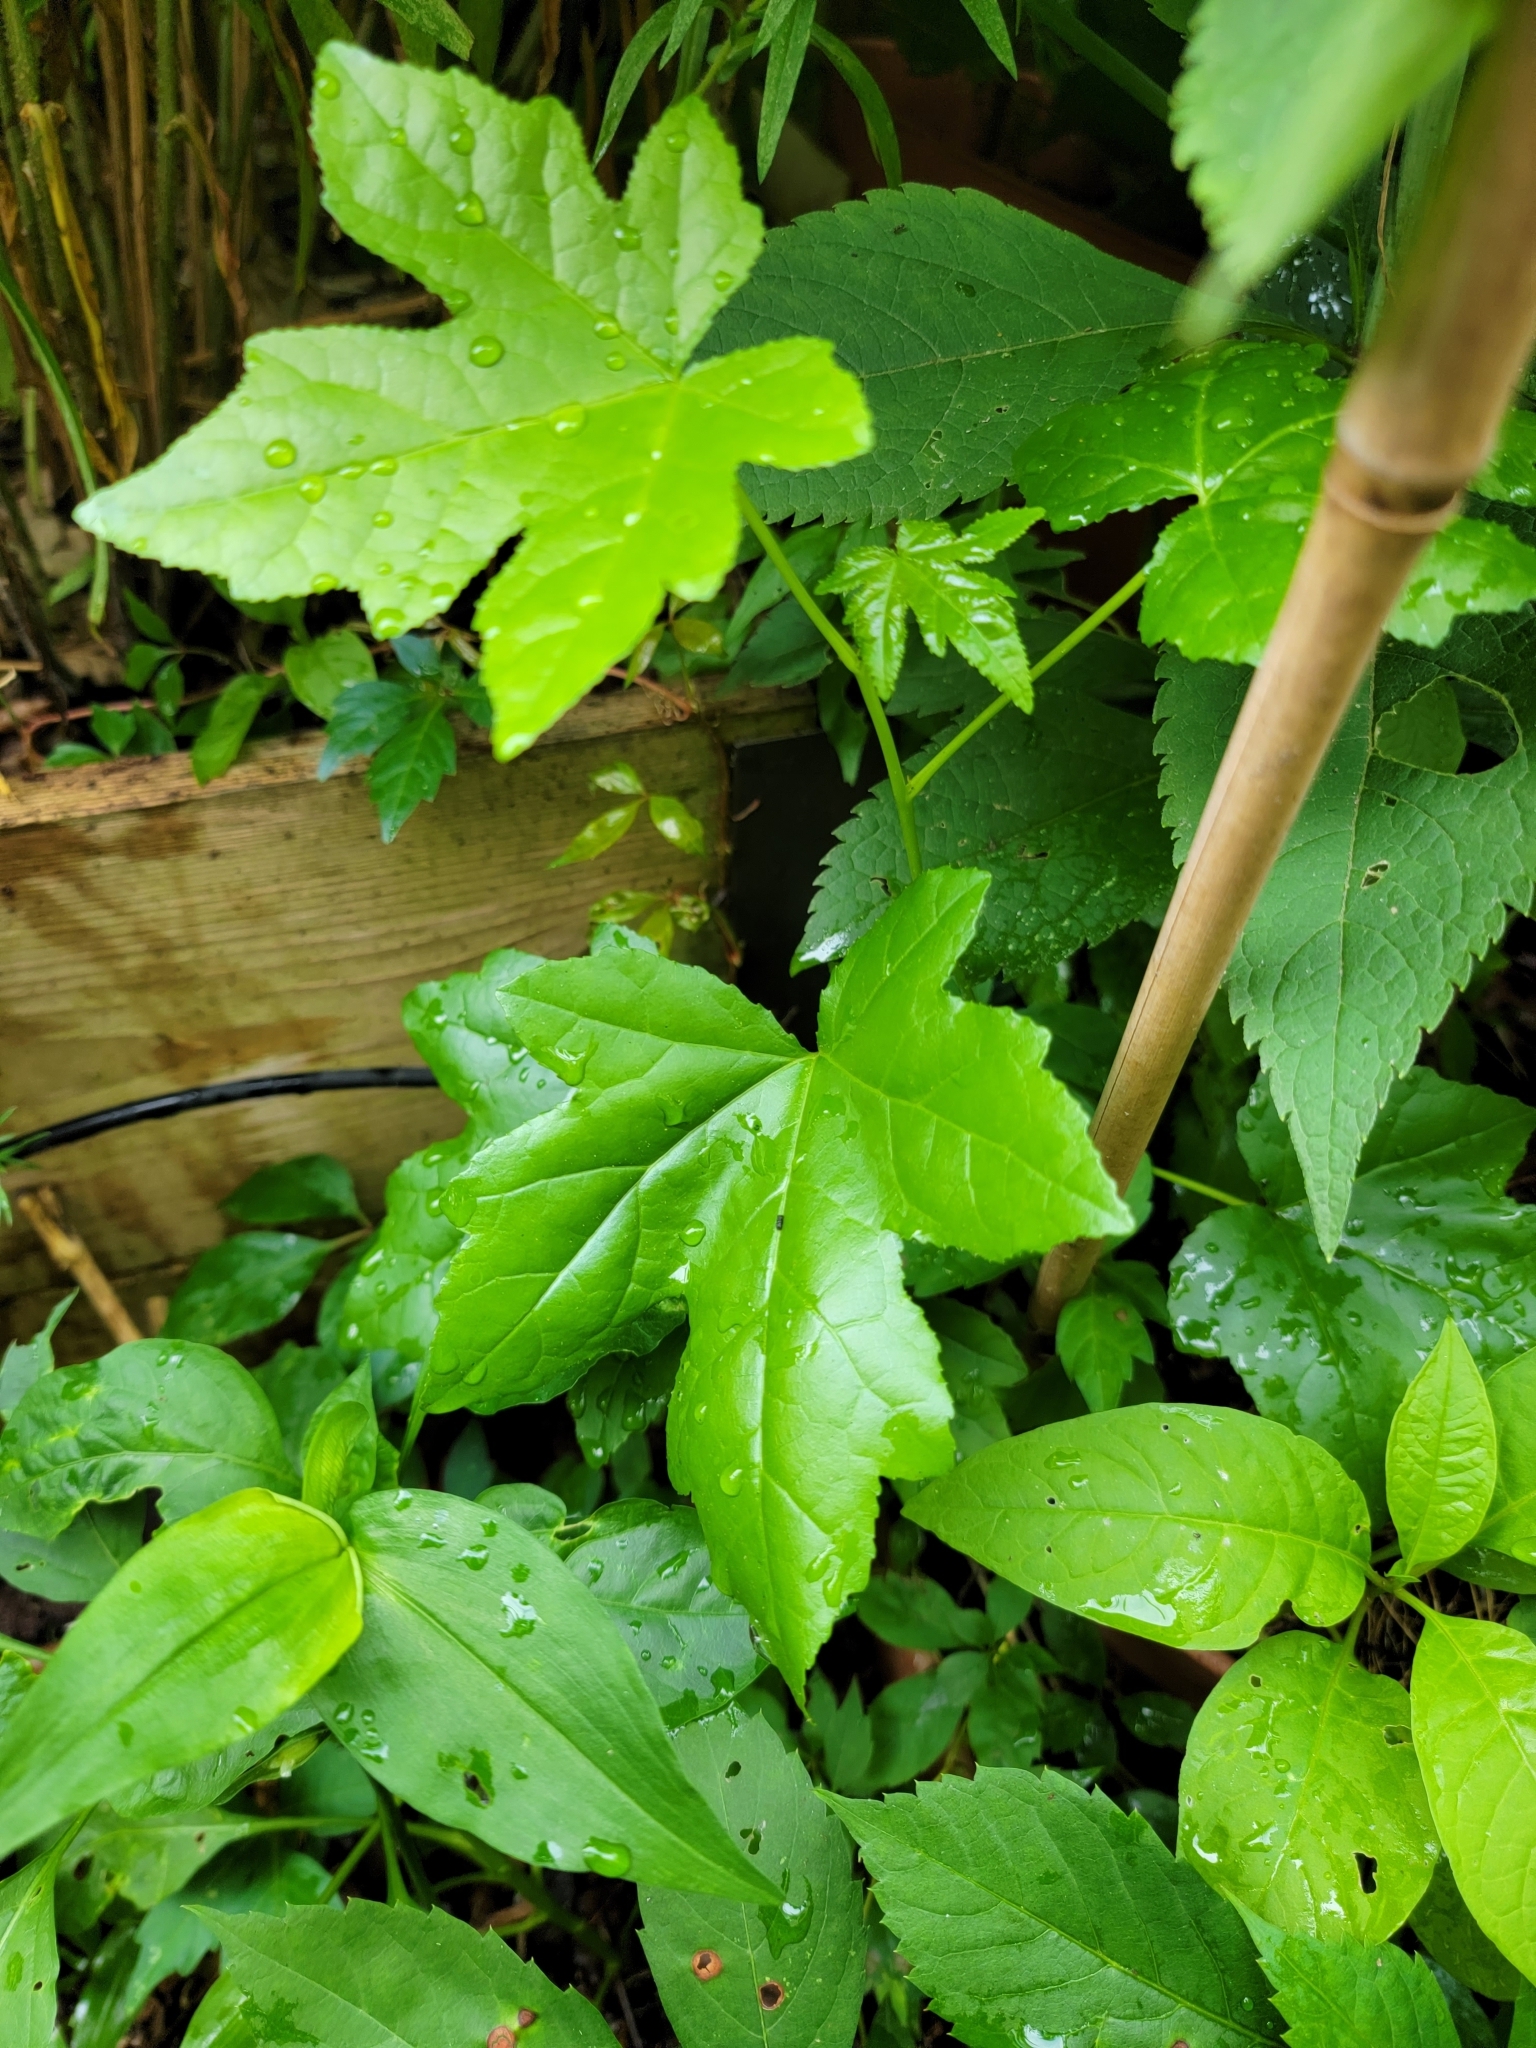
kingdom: Plantae
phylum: Tracheophyta
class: Magnoliopsida
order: Saxifragales
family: Altingiaceae
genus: Liquidambar
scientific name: Liquidambar styraciflua
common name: Sweet gum
